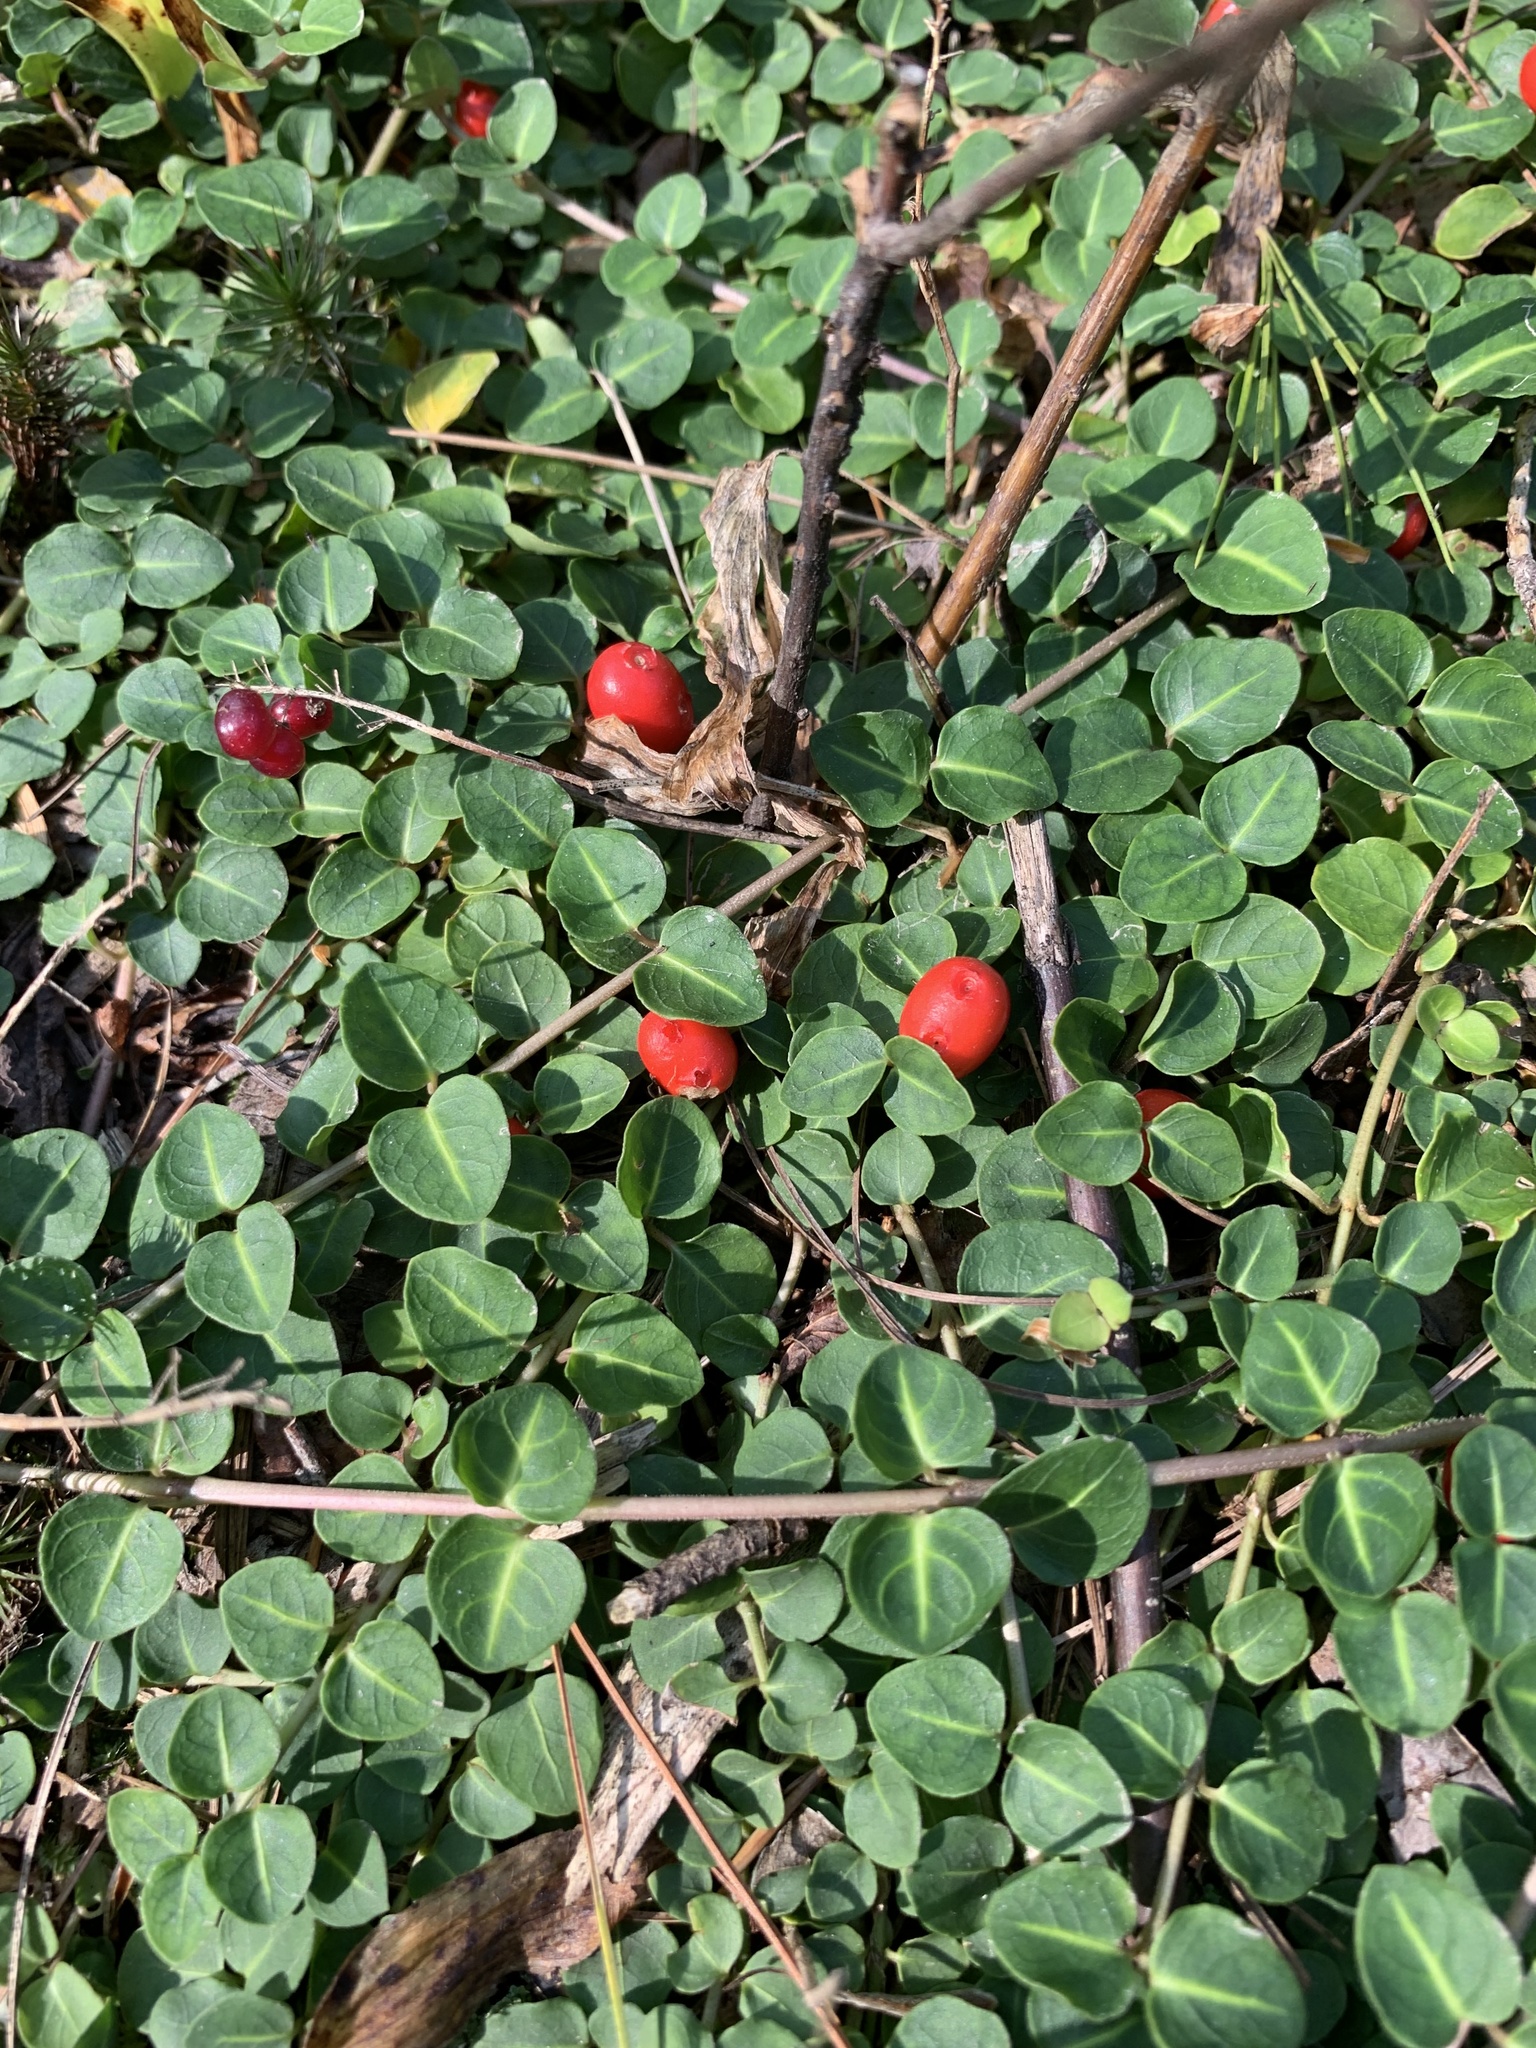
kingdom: Plantae
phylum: Tracheophyta
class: Magnoliopsida
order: Gentianales
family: Rubiaceae
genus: Mitchella
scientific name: Mitchella repens
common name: Partridge-berry
